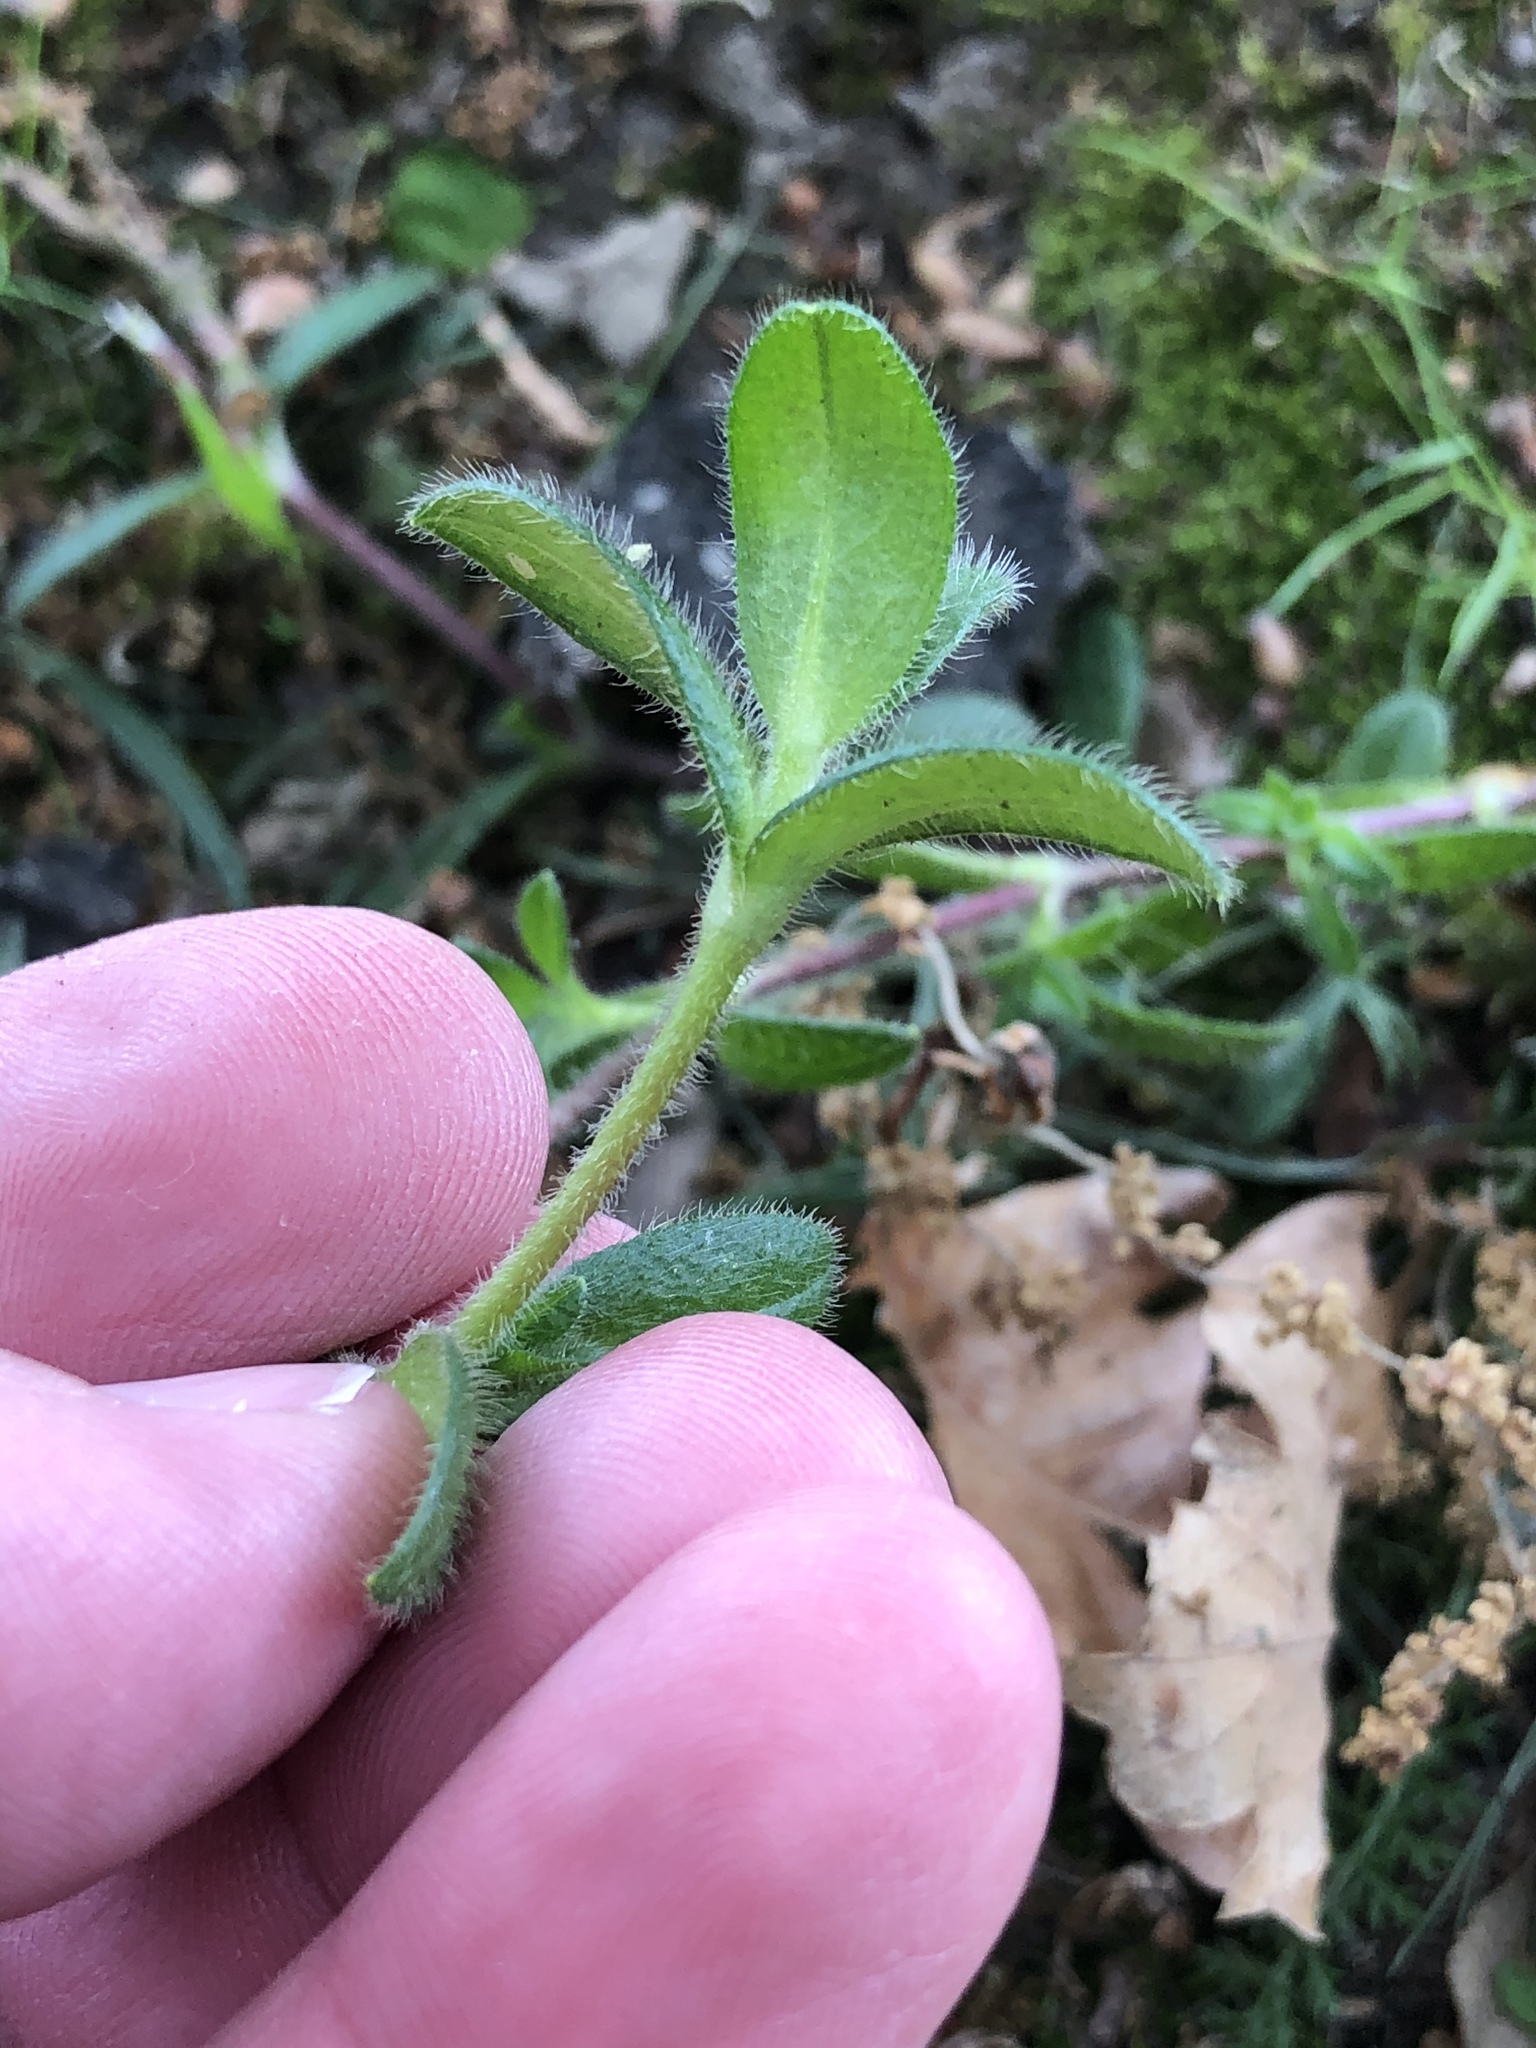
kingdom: Plantae
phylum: Tracheophyta
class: Magnoliopsida
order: Caryophyllales
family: Caryophyllaceae
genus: Cerastium
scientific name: Cerastium fontanum
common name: Common mouse-ear
